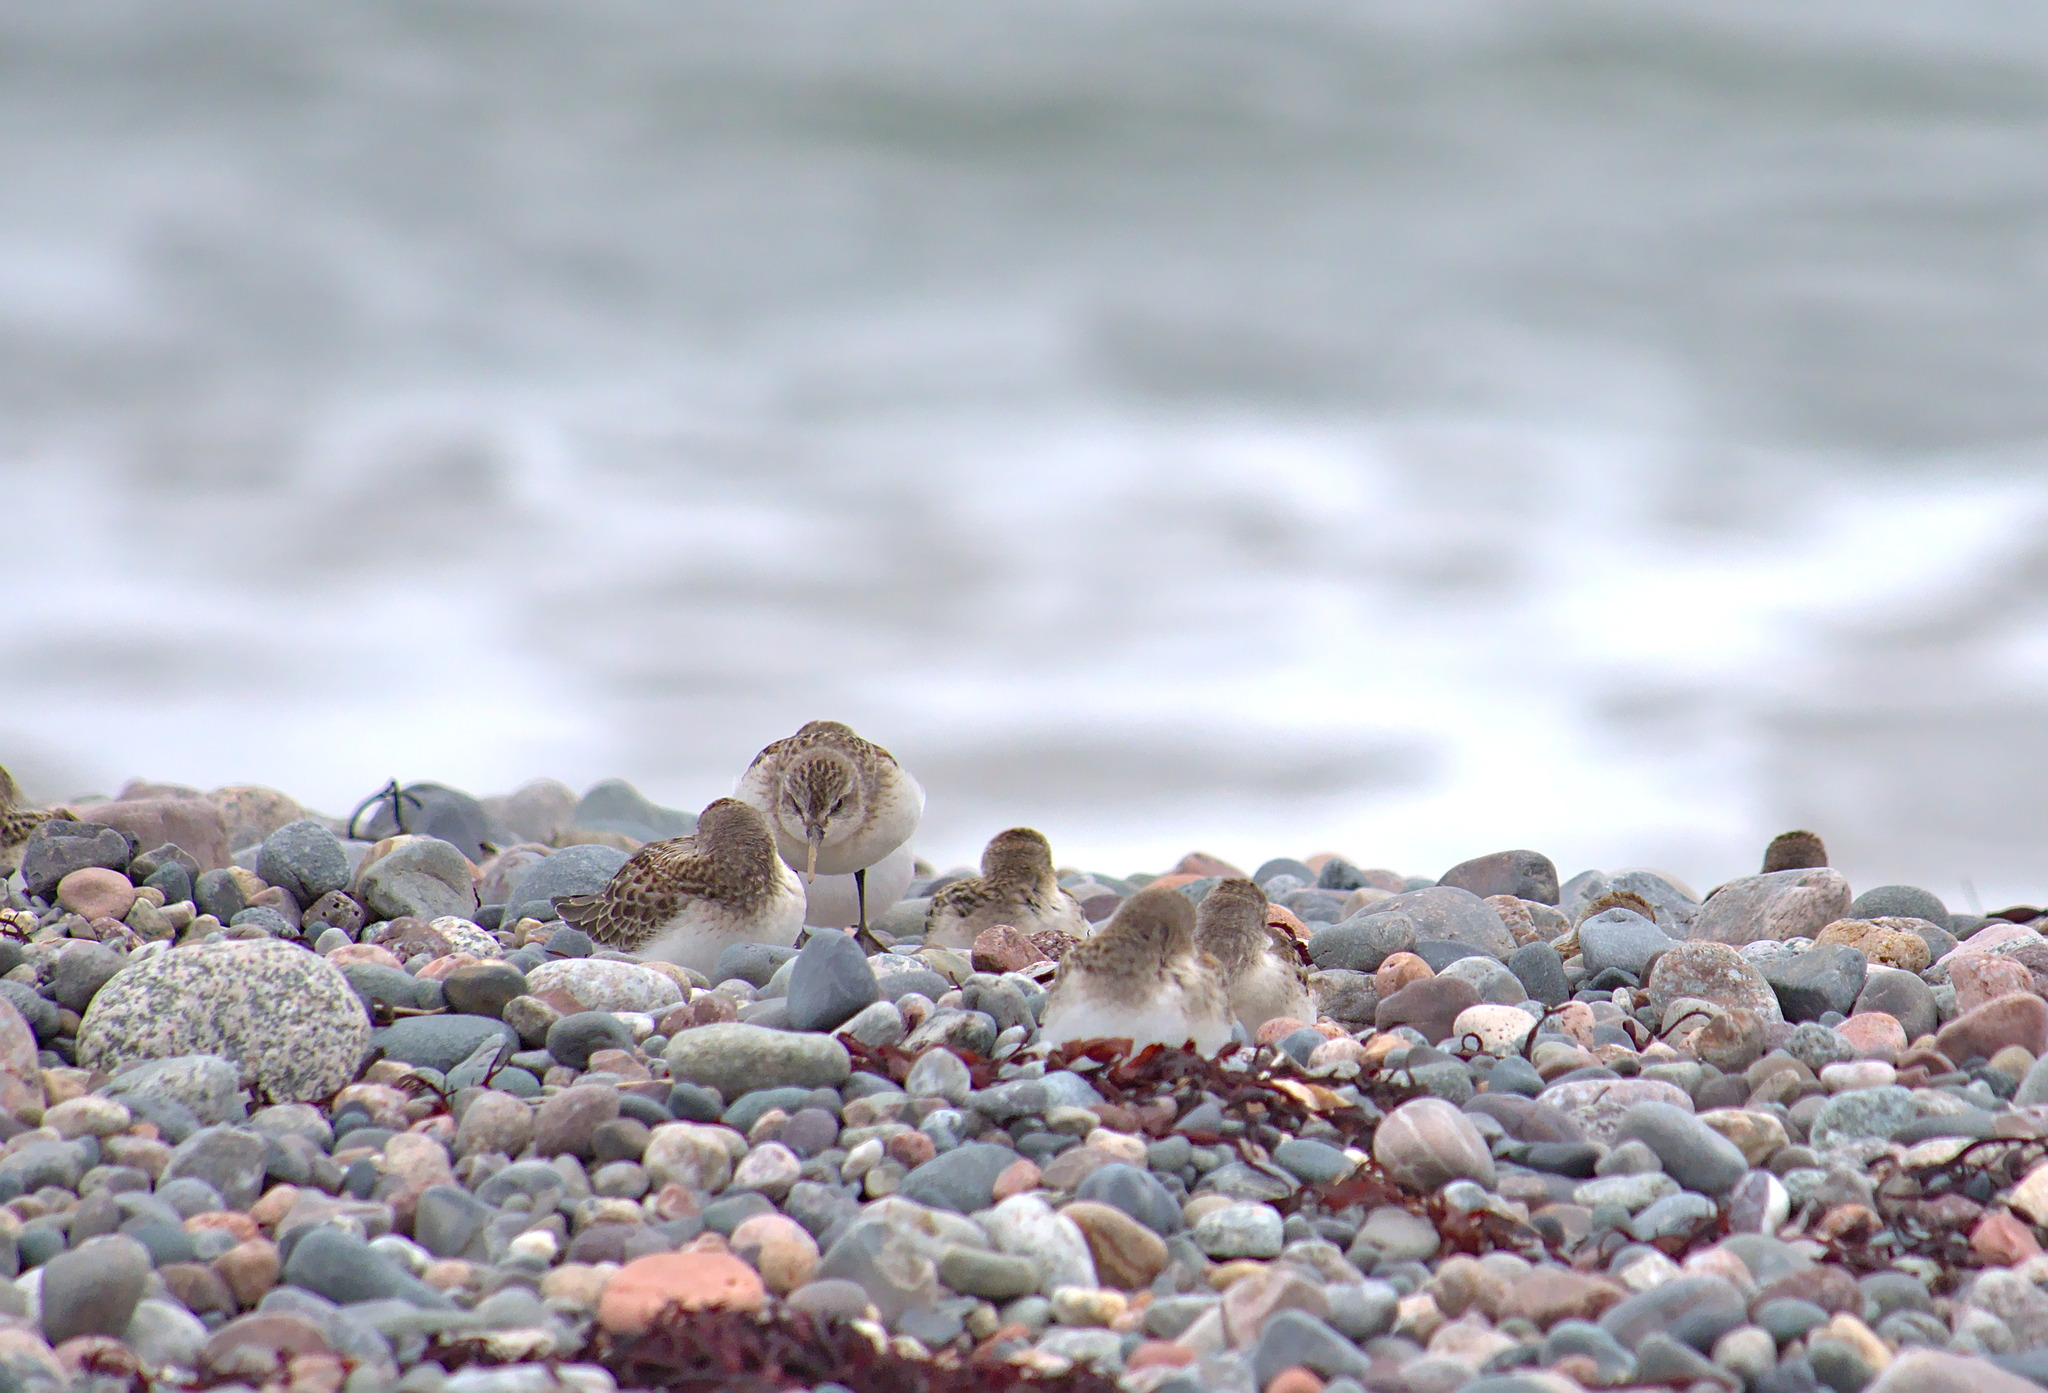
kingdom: Animalia
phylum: Chordata
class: Aves
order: Charadriiformes
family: Scolopacidae
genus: Calidris
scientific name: Calidris pusilla
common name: Semipalmated sandpiper
